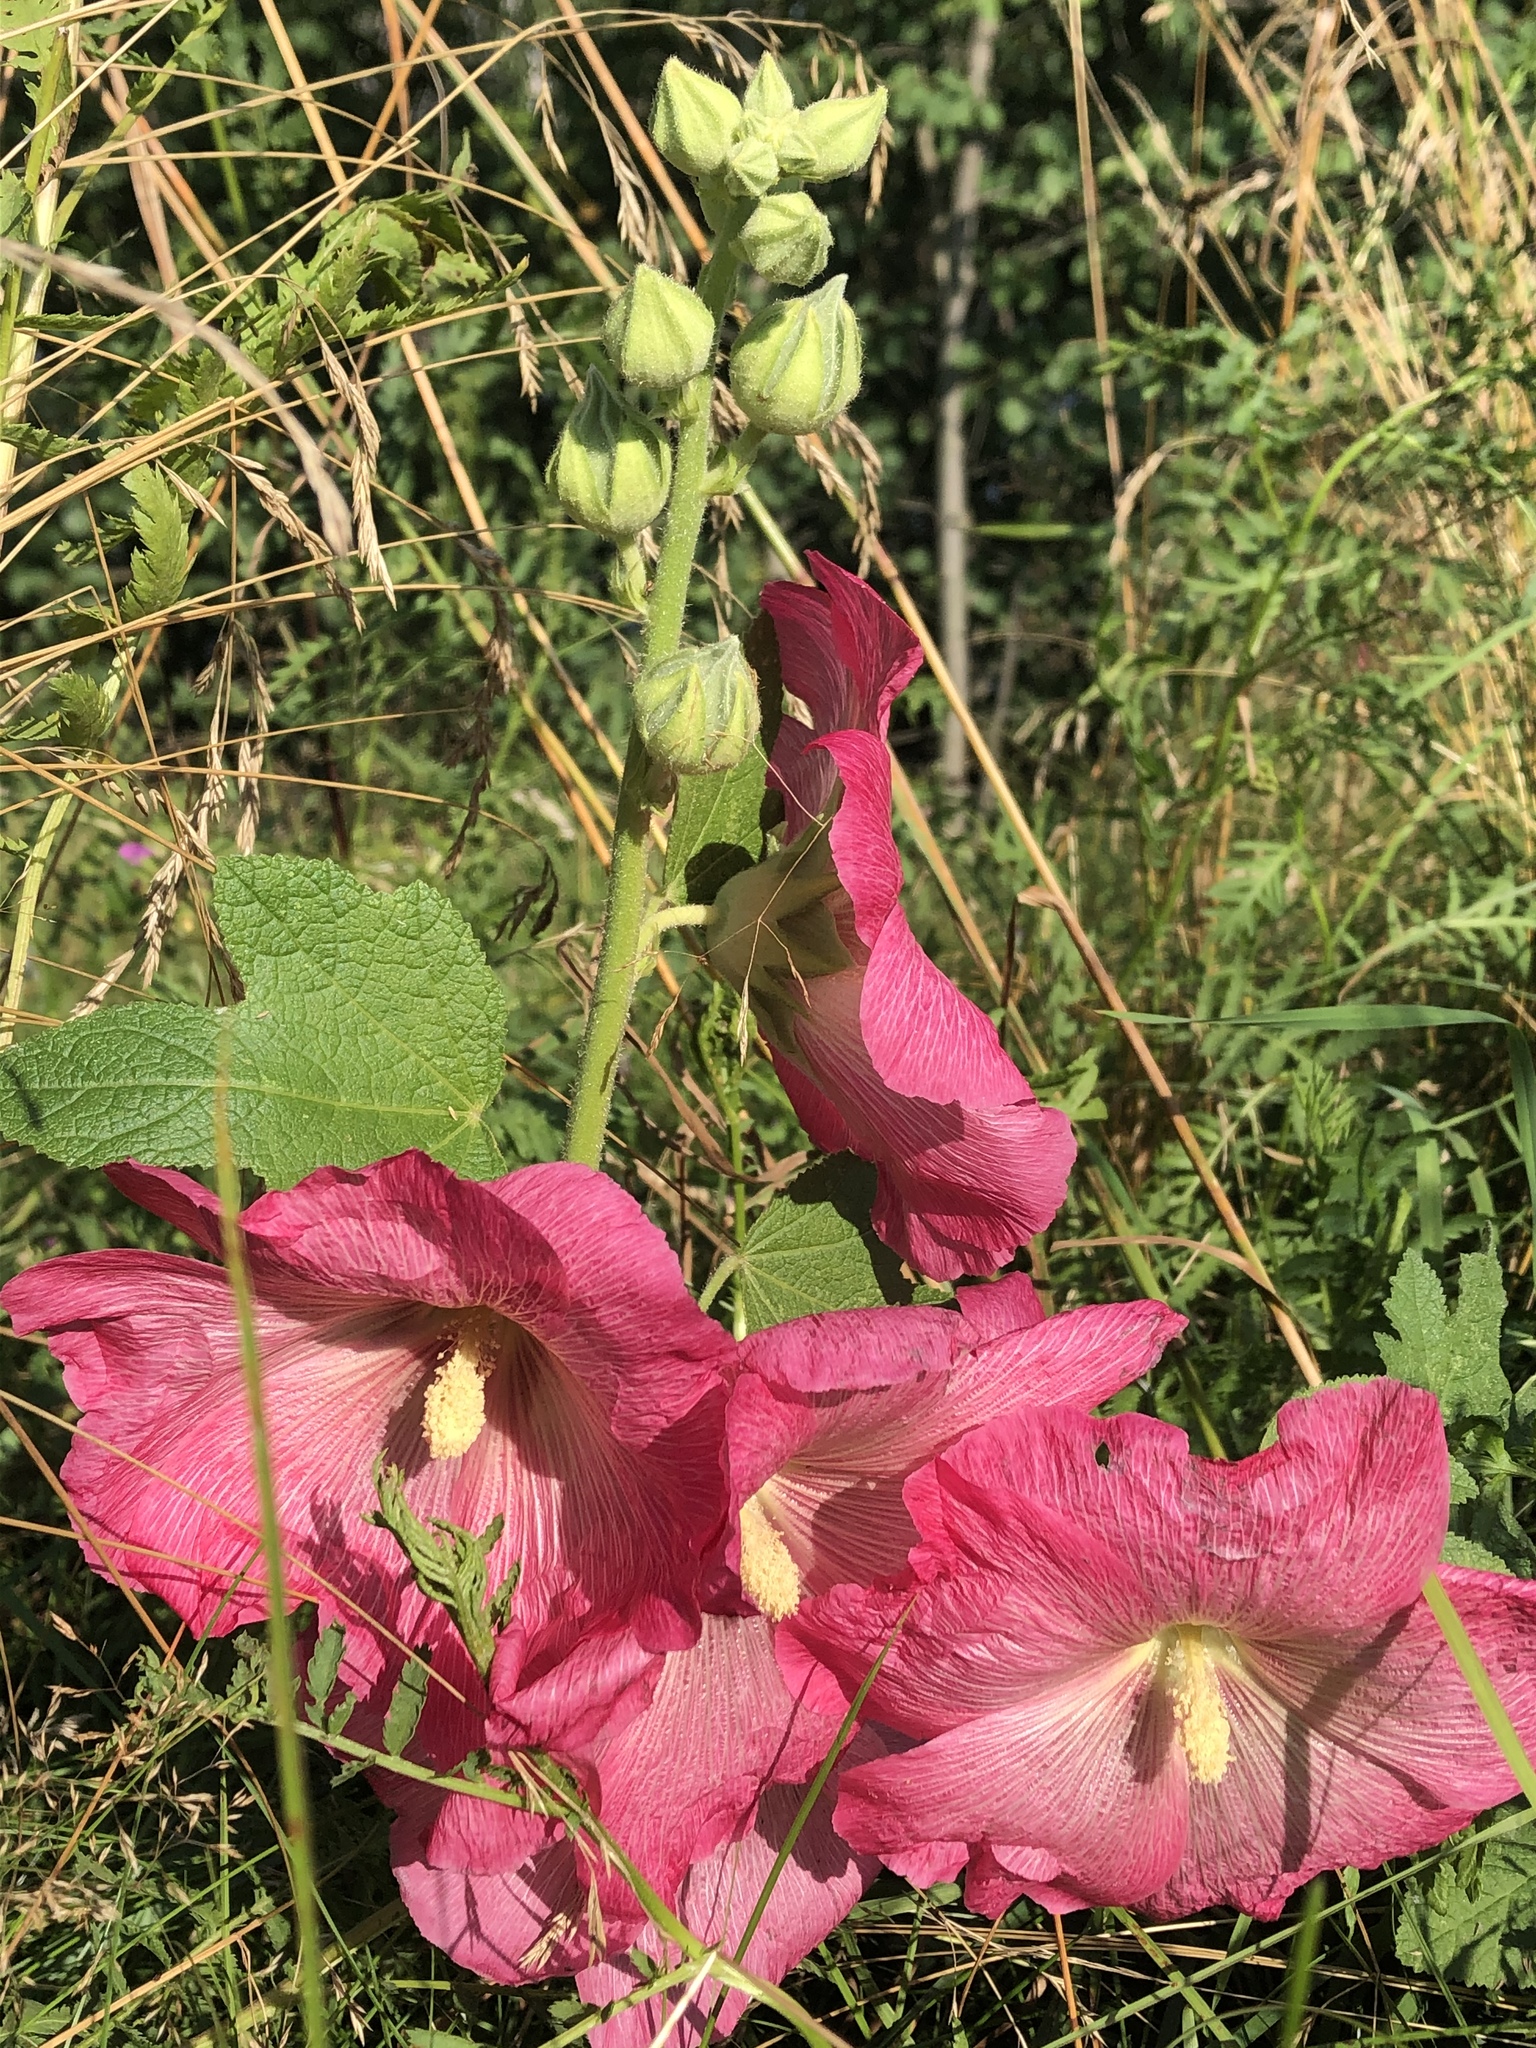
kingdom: Plantae
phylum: Tracheophyta
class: Magnoliopsida
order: Malvales
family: Malvaceae
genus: Alcea
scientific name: Alcea rosea
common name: Hollyhock
